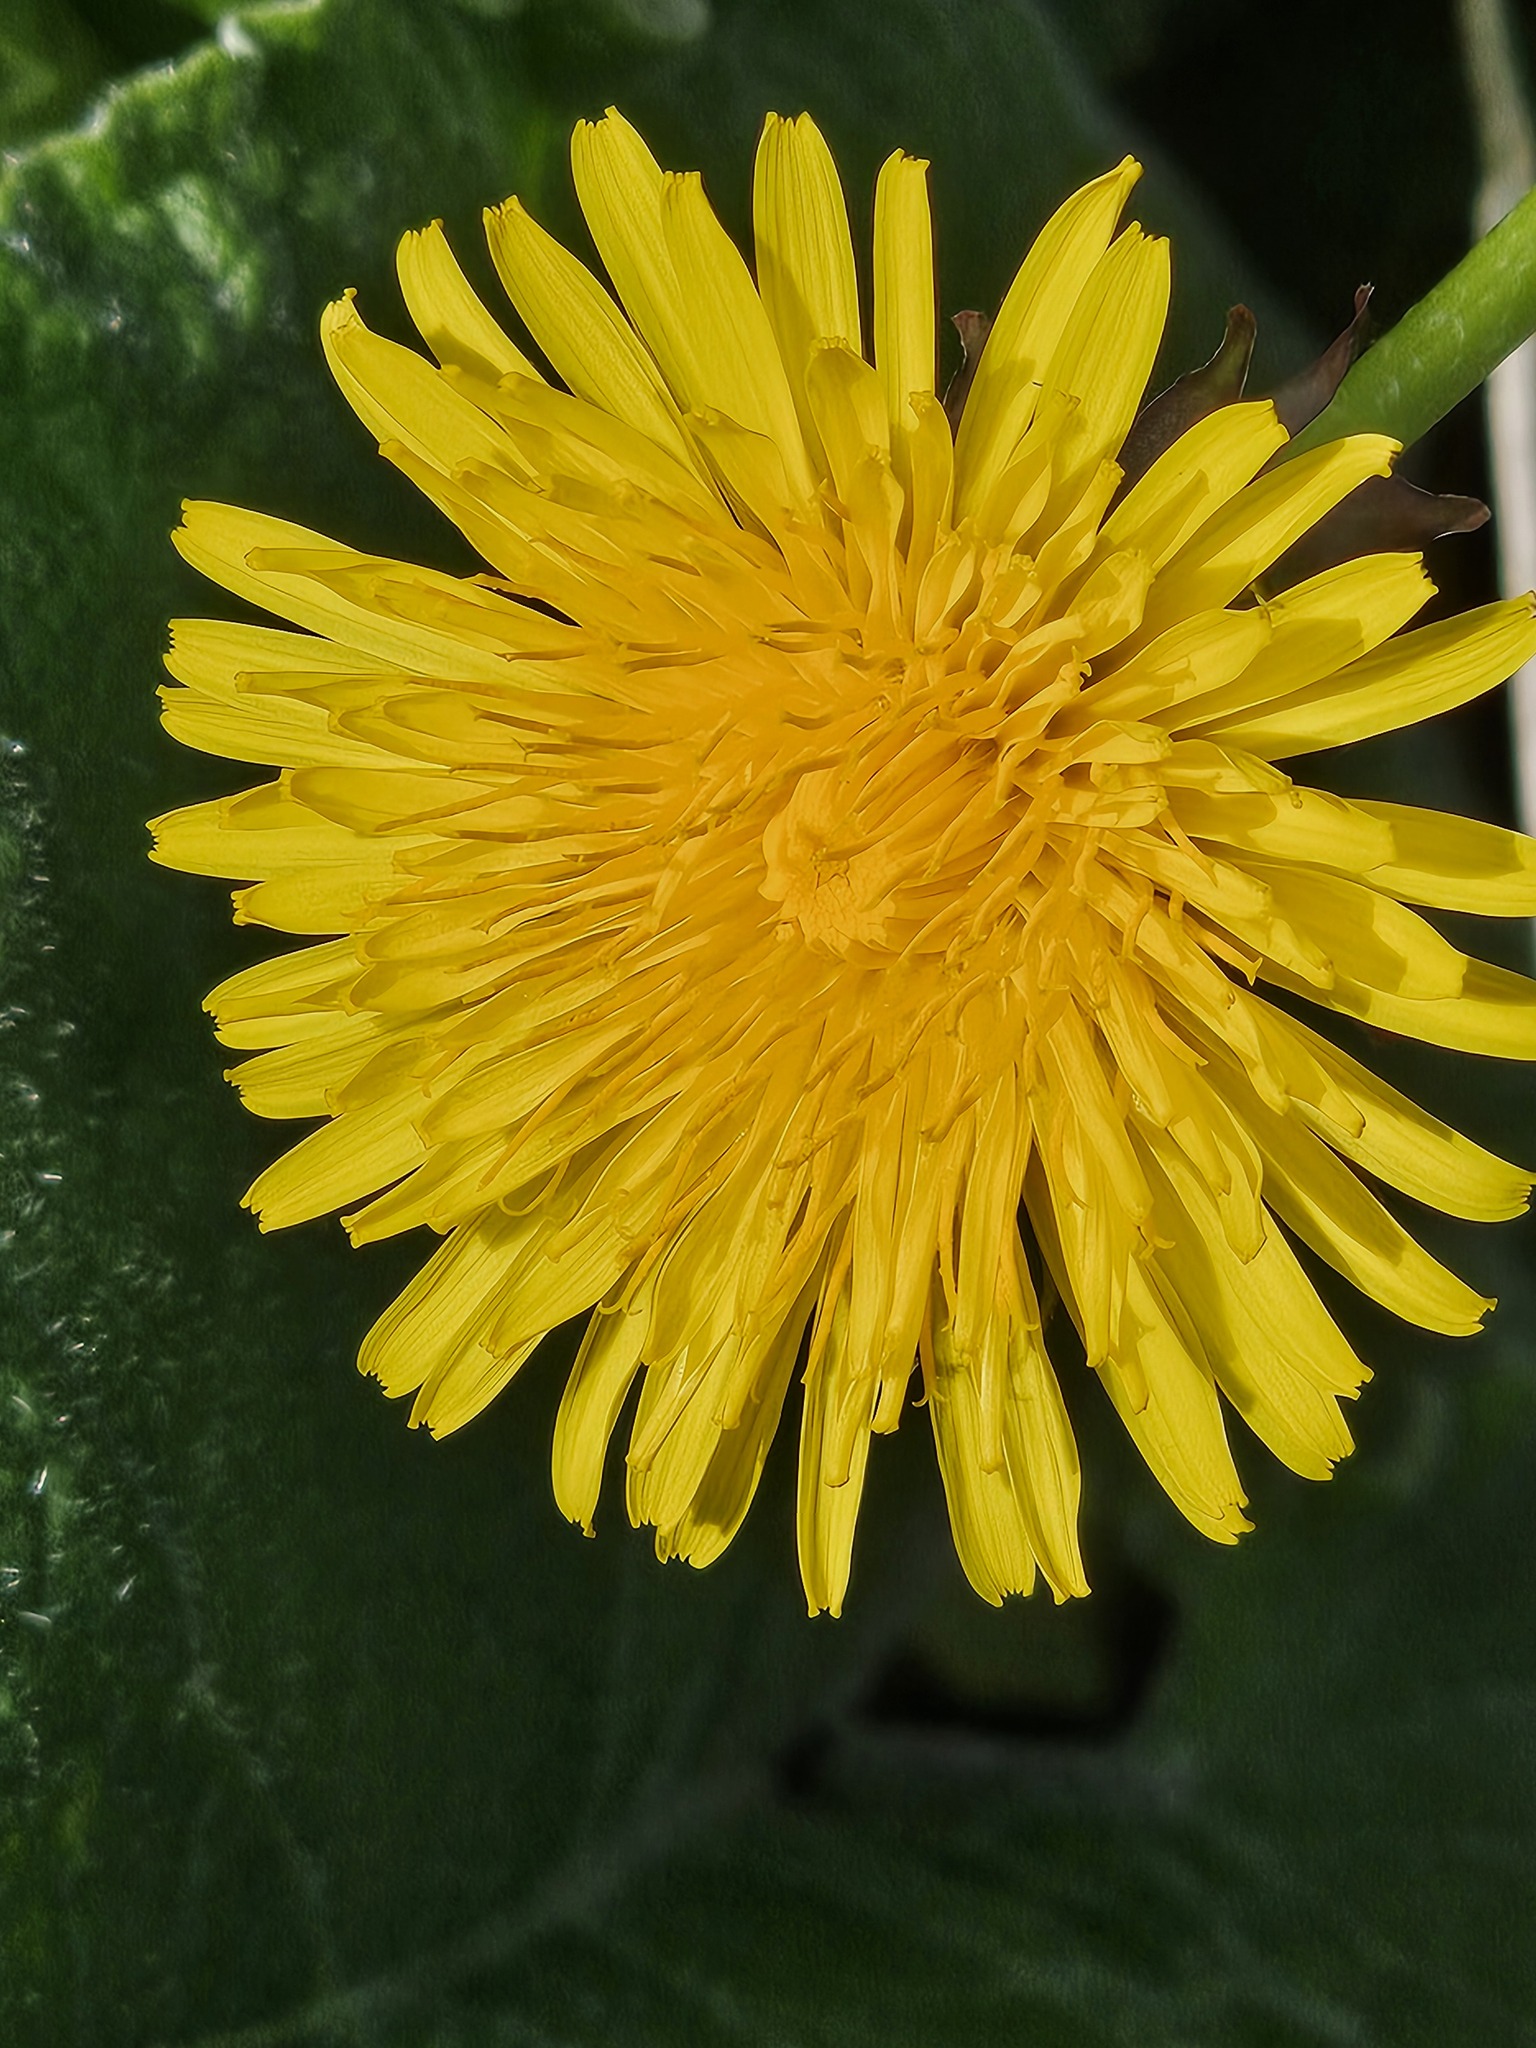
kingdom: Plantae
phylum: Tracheophyta
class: Magnoliopsida
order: Asterales
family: Asteraceae
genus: Taraxacum
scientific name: Taraxacum officinale
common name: Common dandelion
